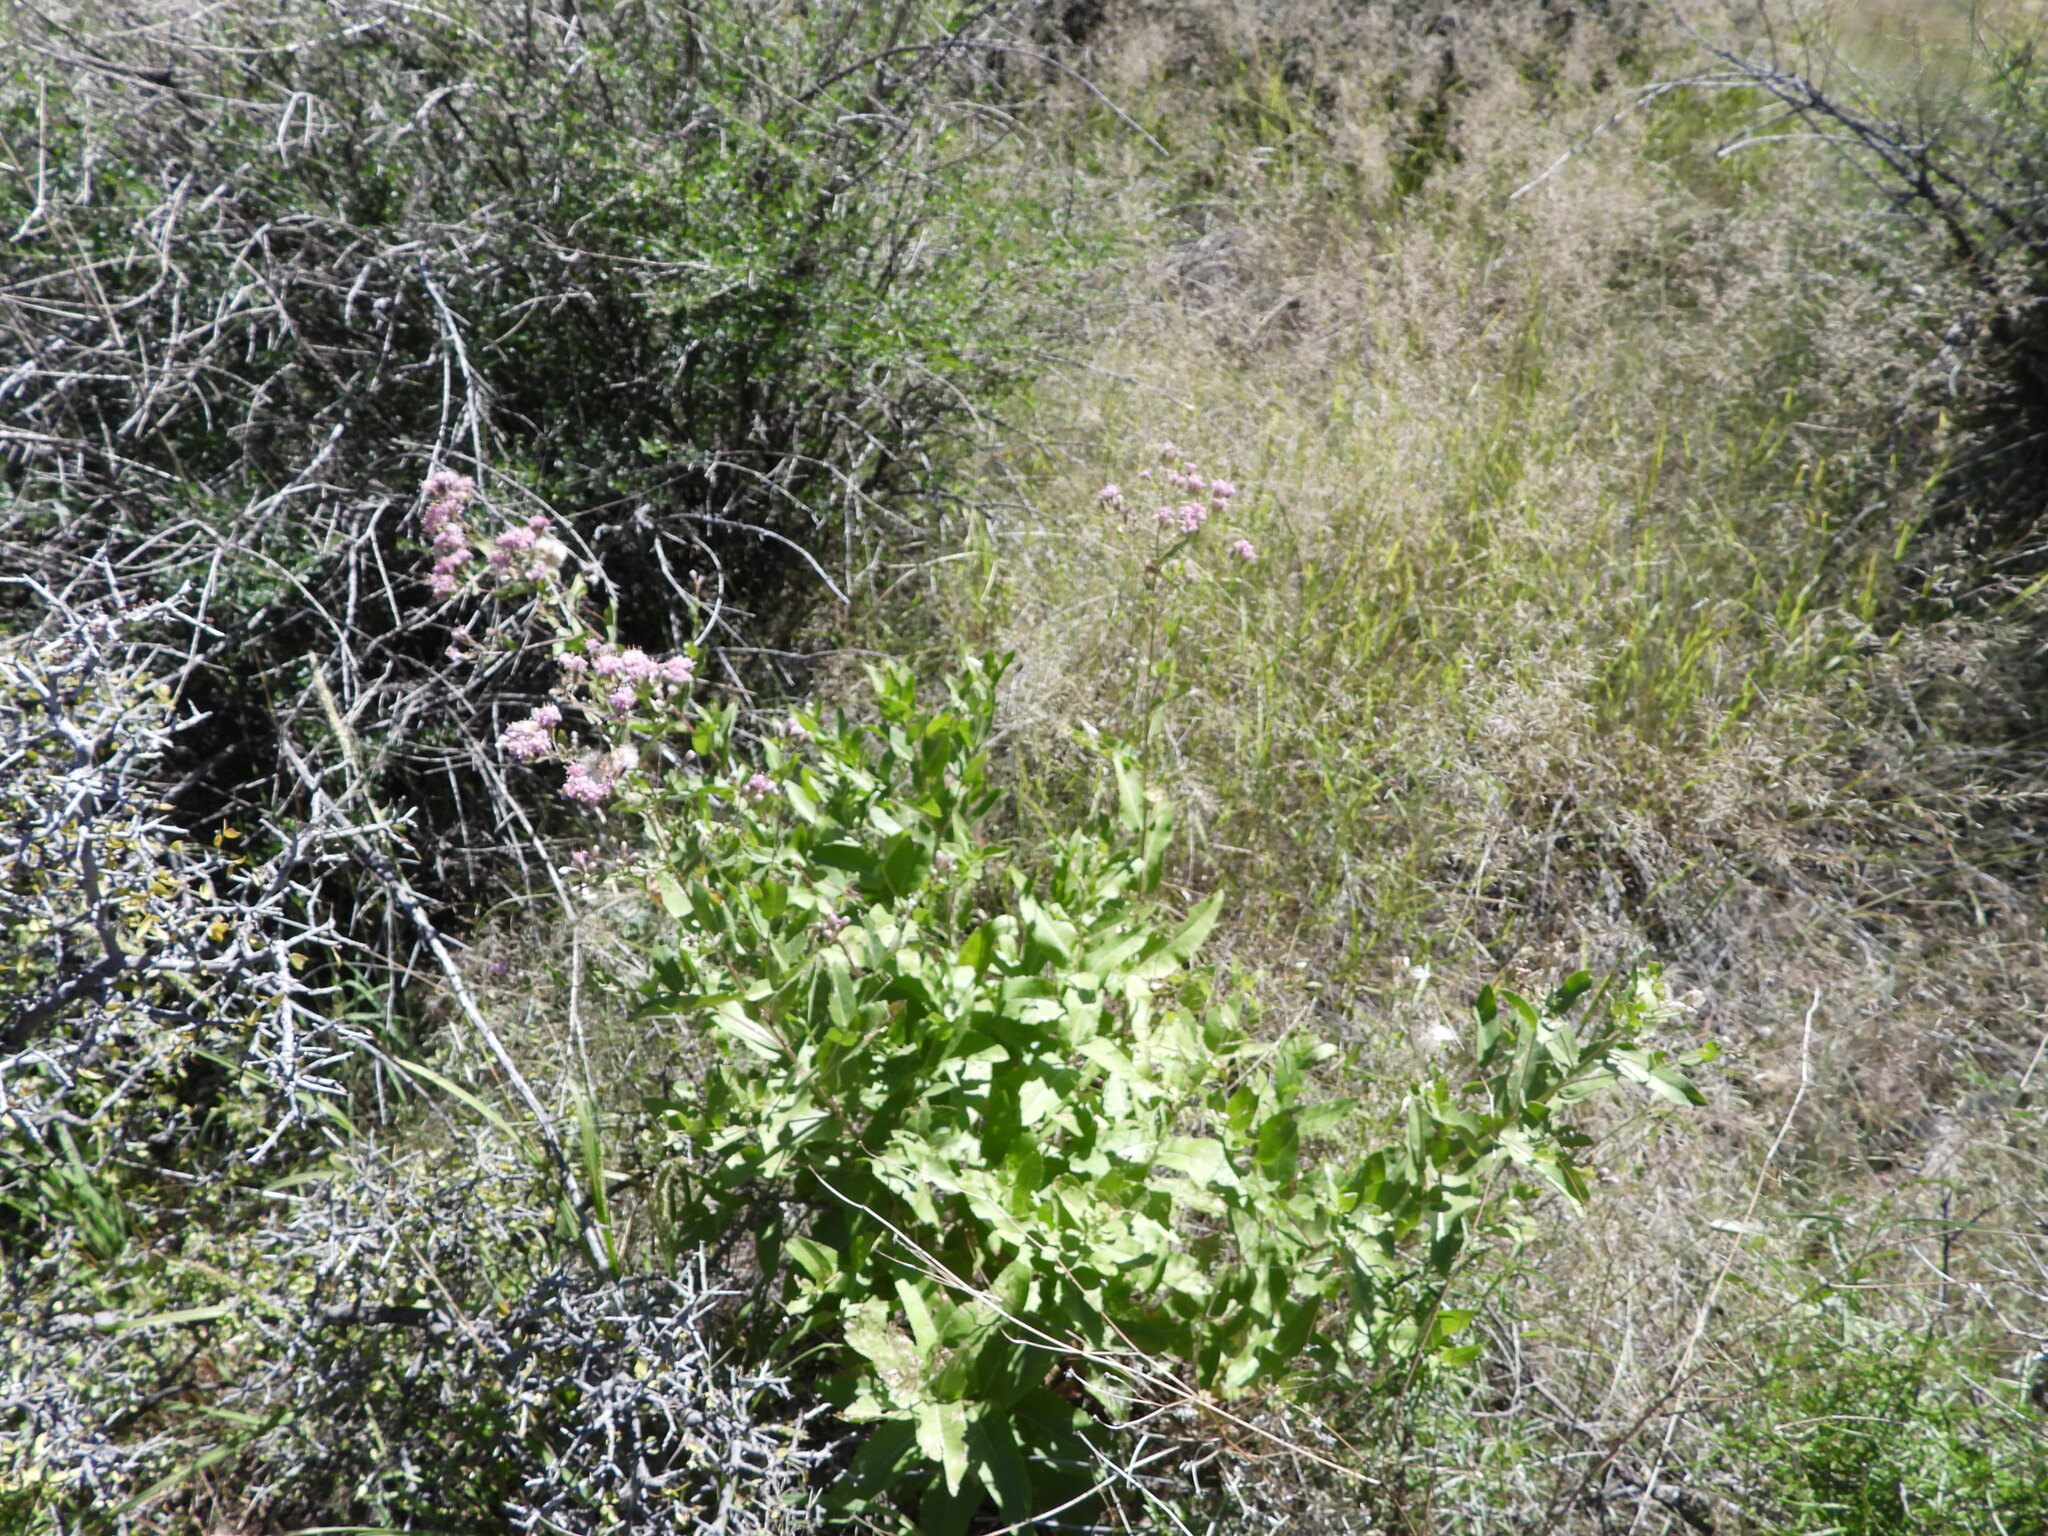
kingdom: Animalia
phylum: Arthropoda
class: Insecta
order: Hymenoptera
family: Apidae
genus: Apis
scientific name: Apis mellifera
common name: Honey bee
